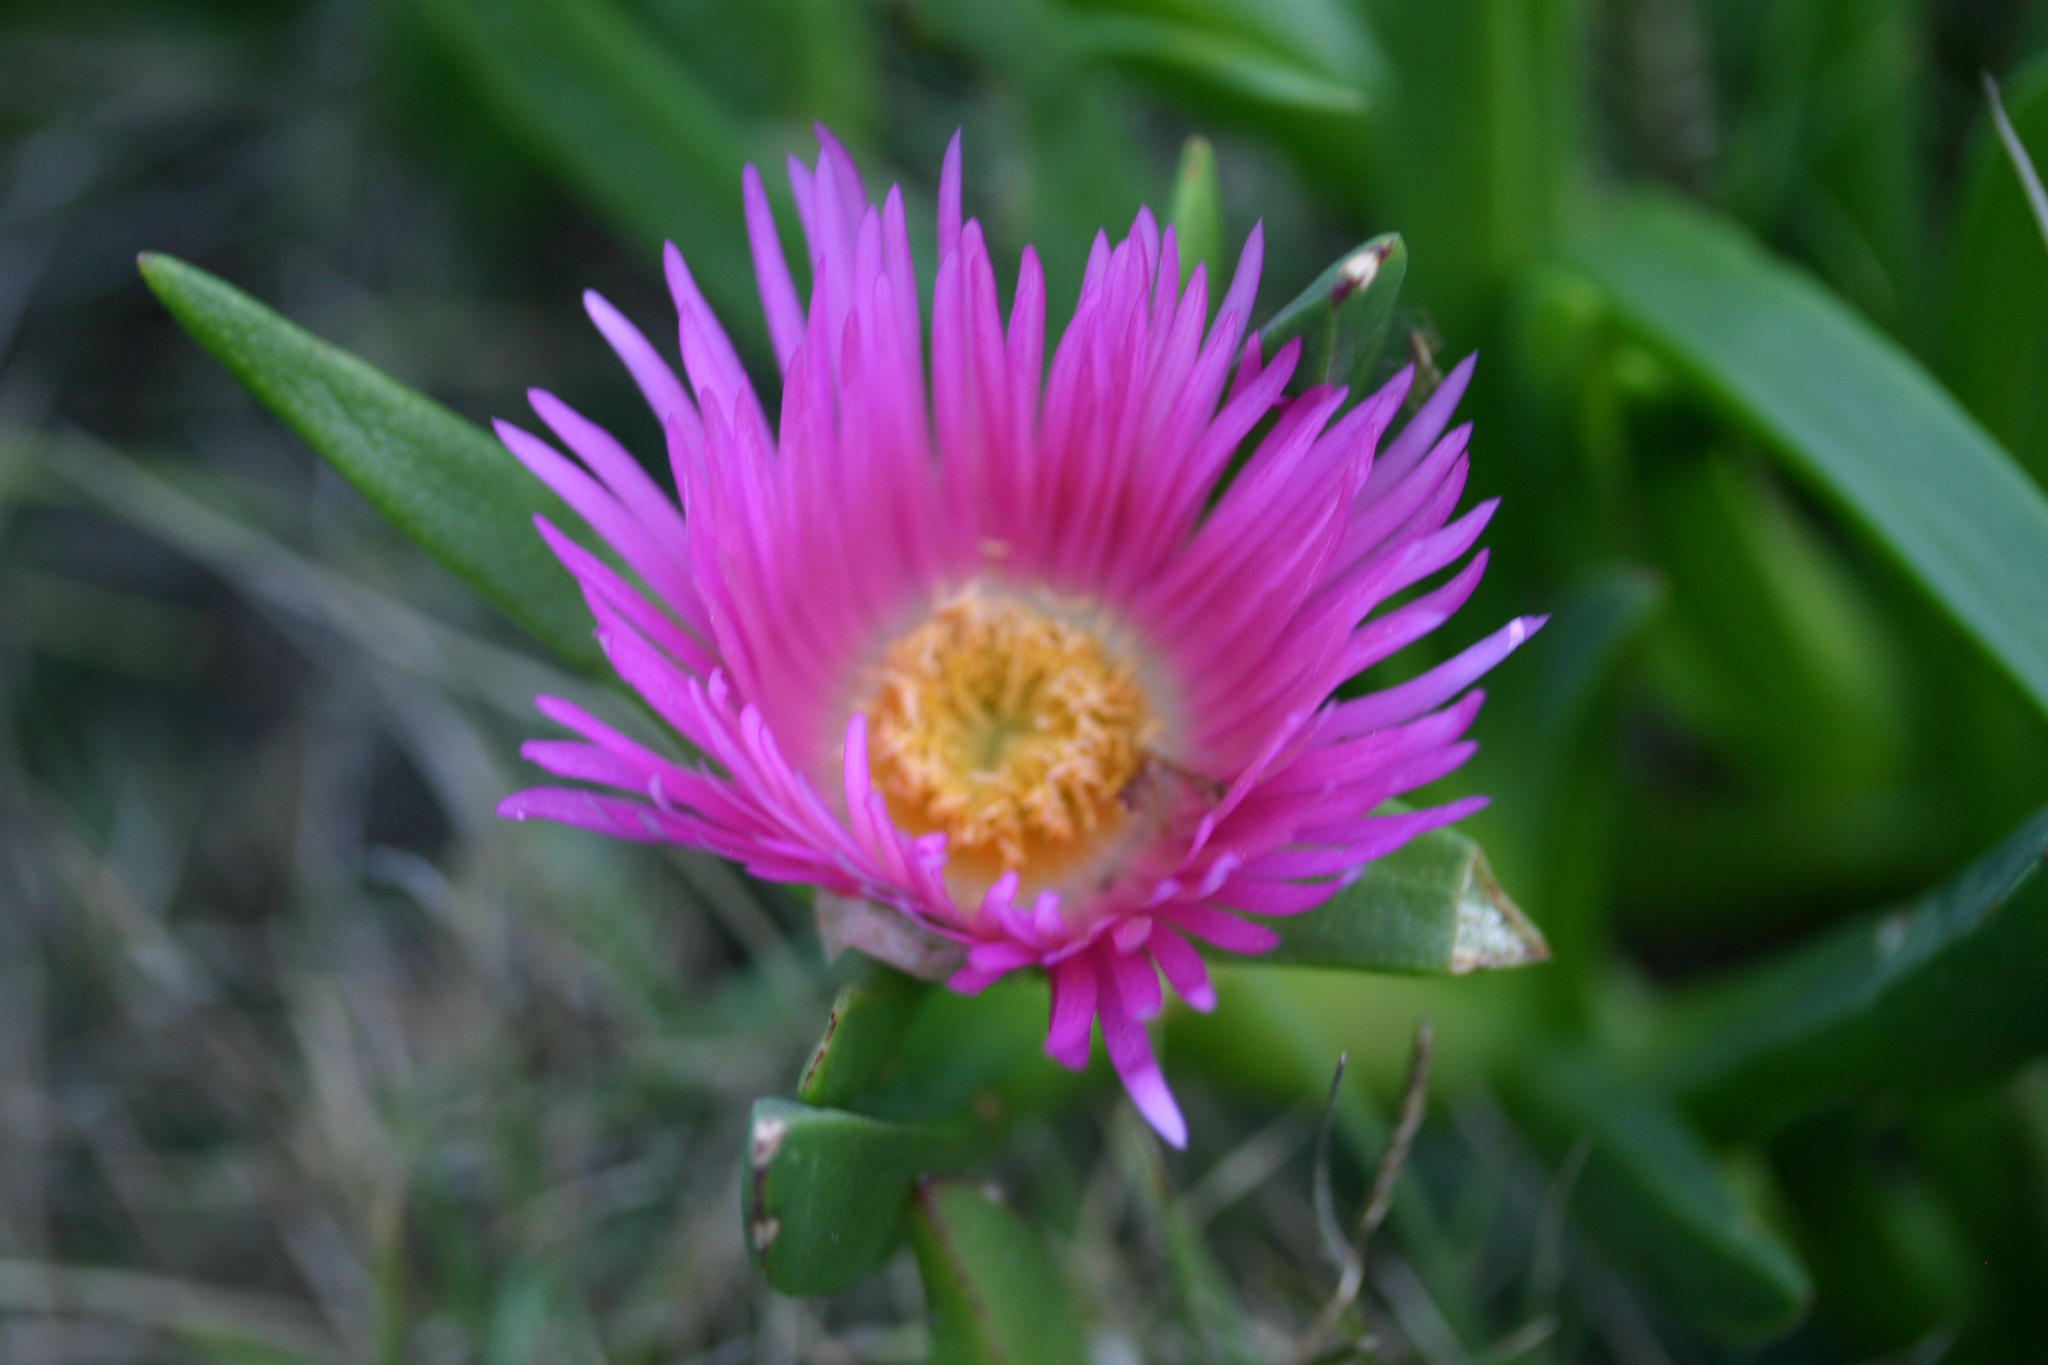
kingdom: Plantae
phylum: Tracheophyta
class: Magnoliopsida
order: Caryophyllales
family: Aizoaceae
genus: Carpobrotus
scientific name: Carpobrotus mellei
